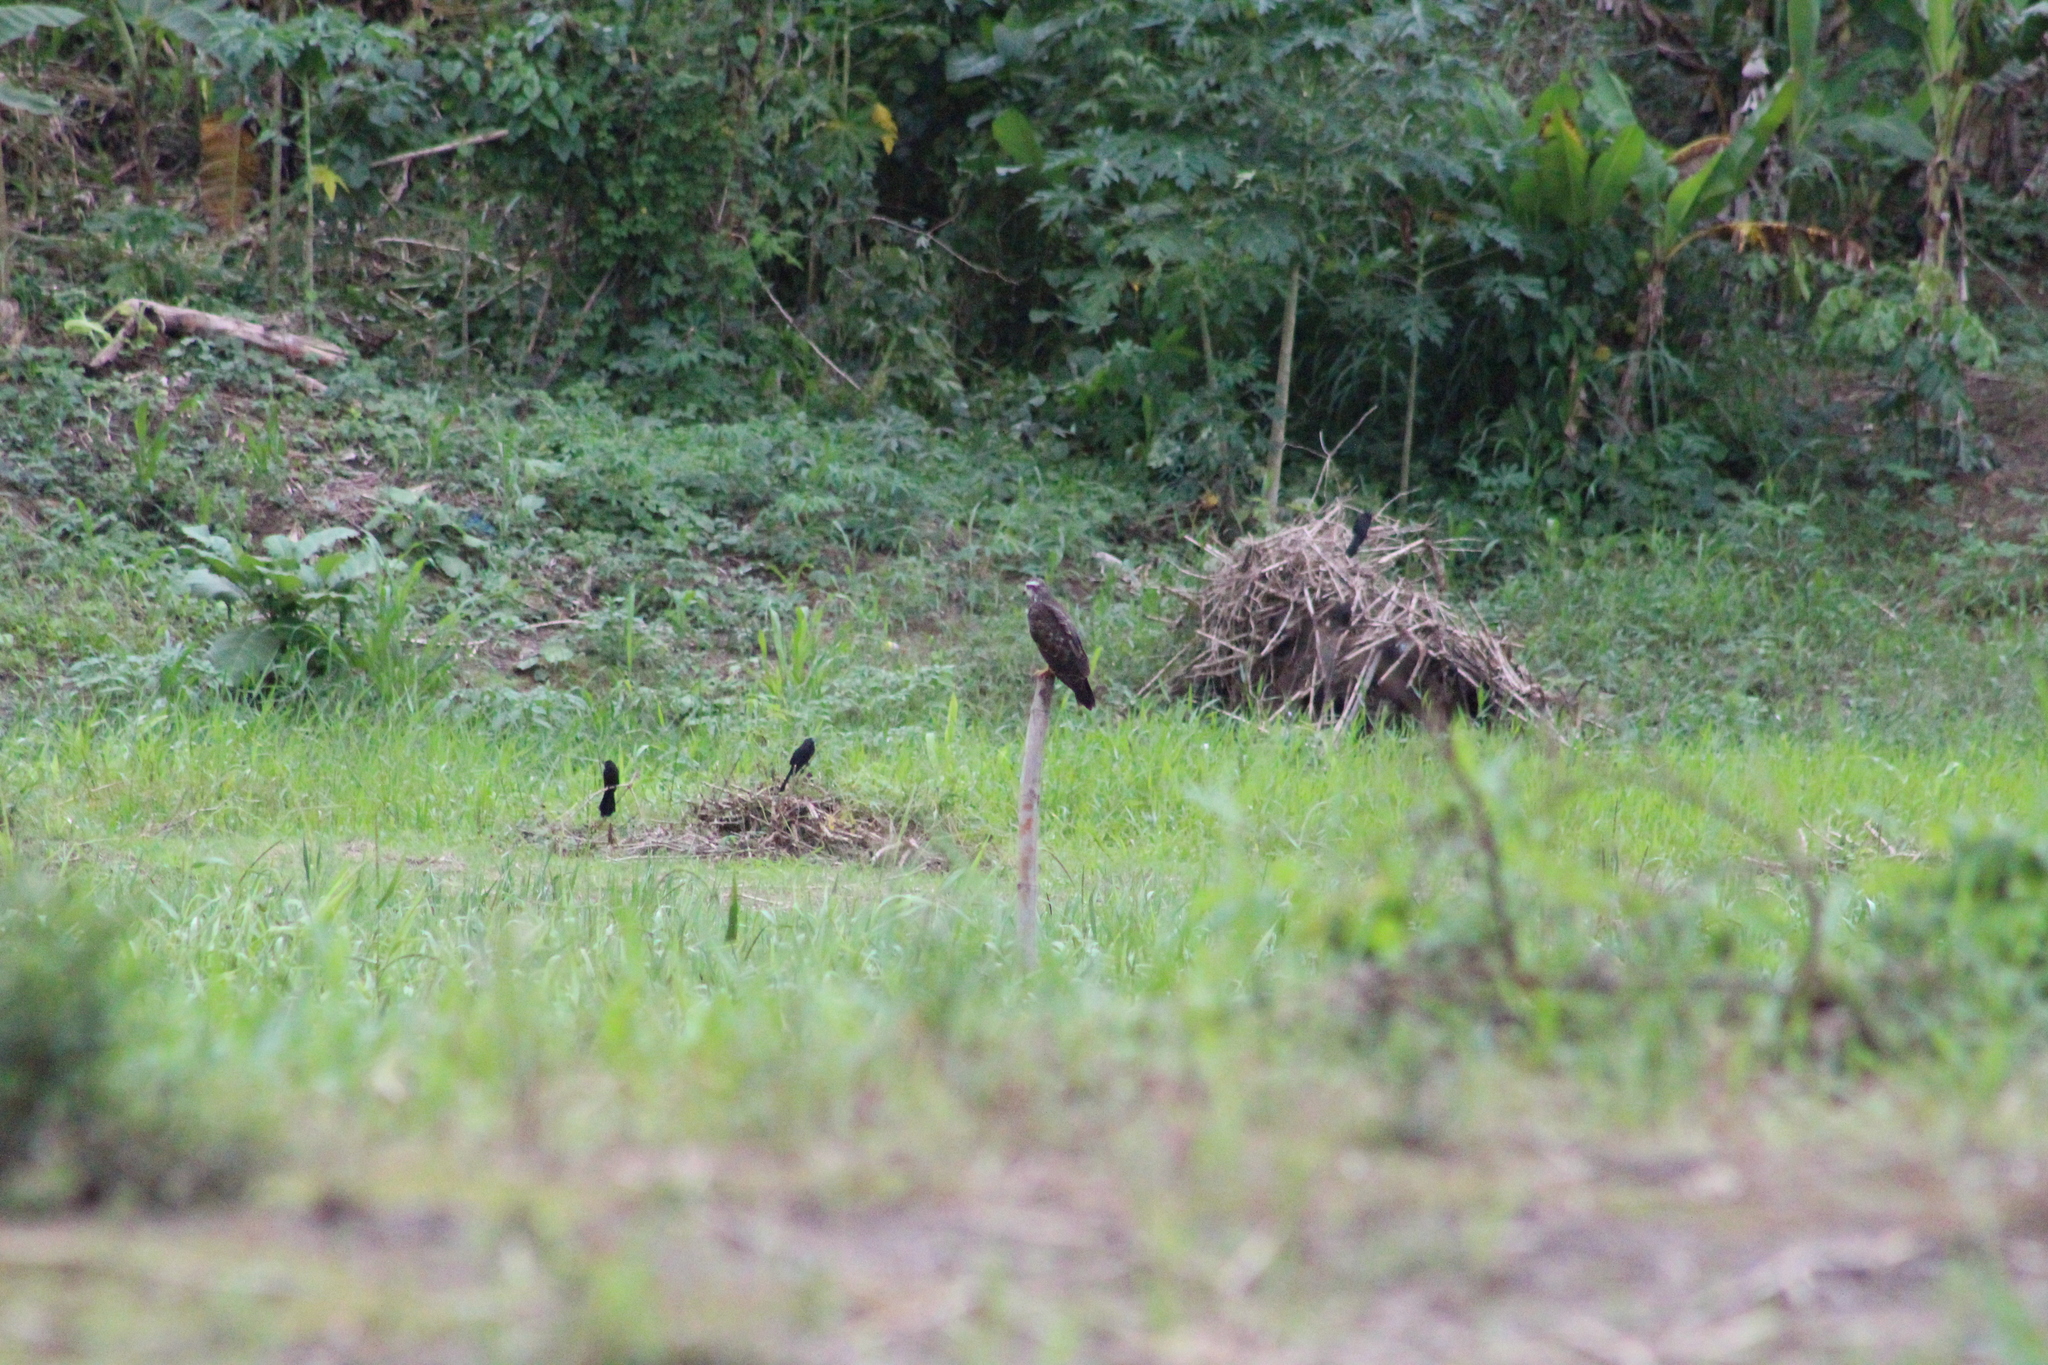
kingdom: Animalia
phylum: Chordata
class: Aves
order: Accipitriformes
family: Accipitridae
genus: Rostrhamus
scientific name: Rostrhamus sociabilis
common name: Snail kite
